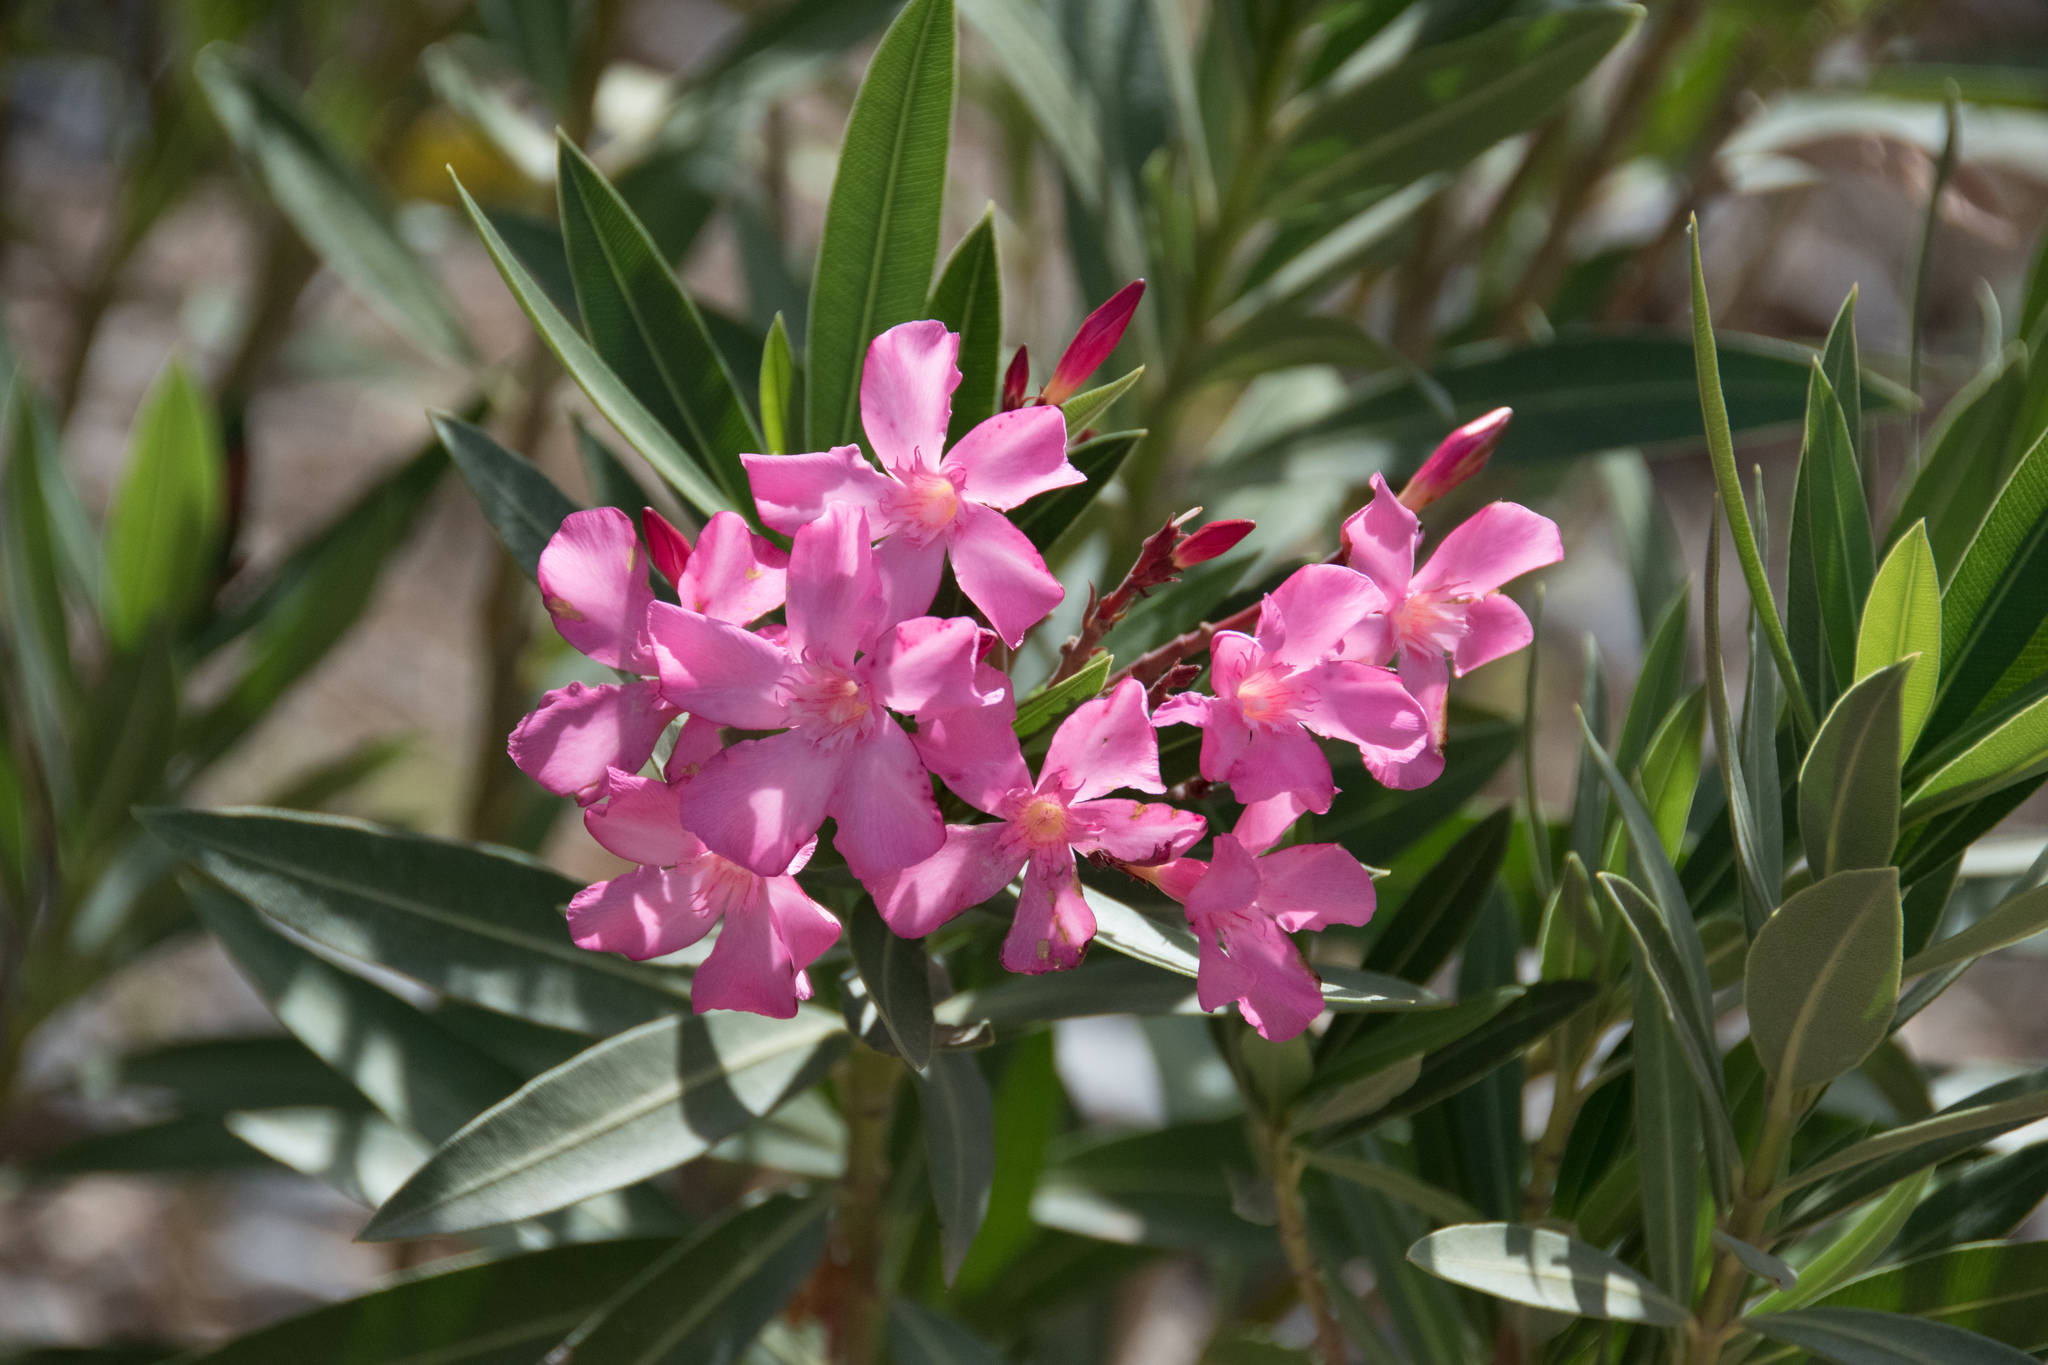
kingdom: Plantae
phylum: Tracheophyta
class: Magnoliopsida
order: Gentianales
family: Apocynaceae
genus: Nerium
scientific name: Nerium oleander
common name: Oleander
